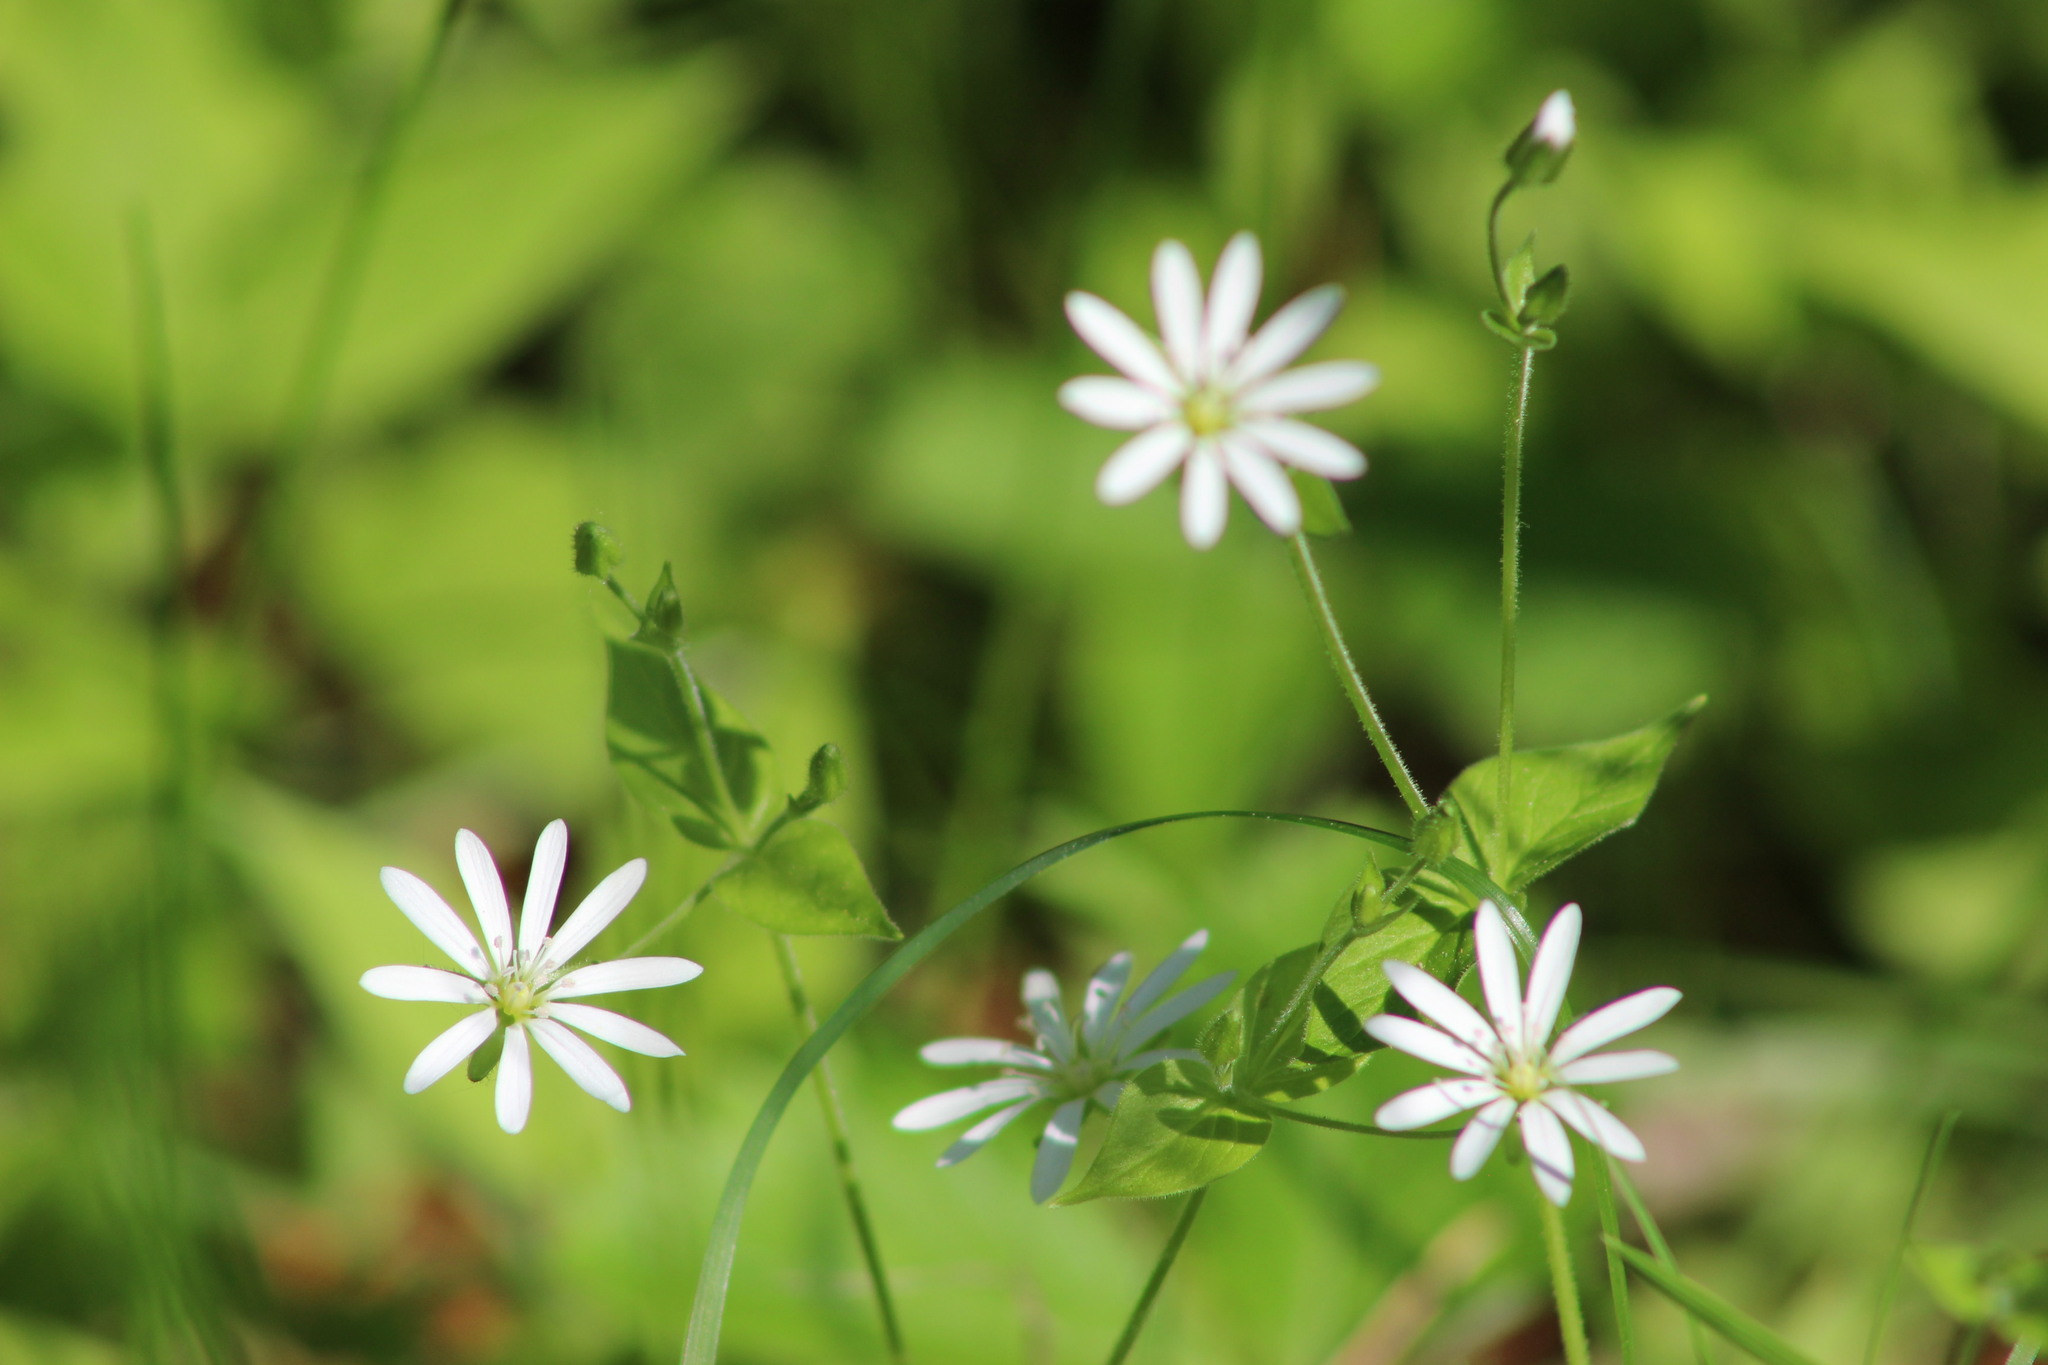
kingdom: Plantae
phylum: Tracheophyta
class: Magnoliopsida
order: Caryophyllales
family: Caryophyllaceae
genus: Stellaria
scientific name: Stellaria bungeana
